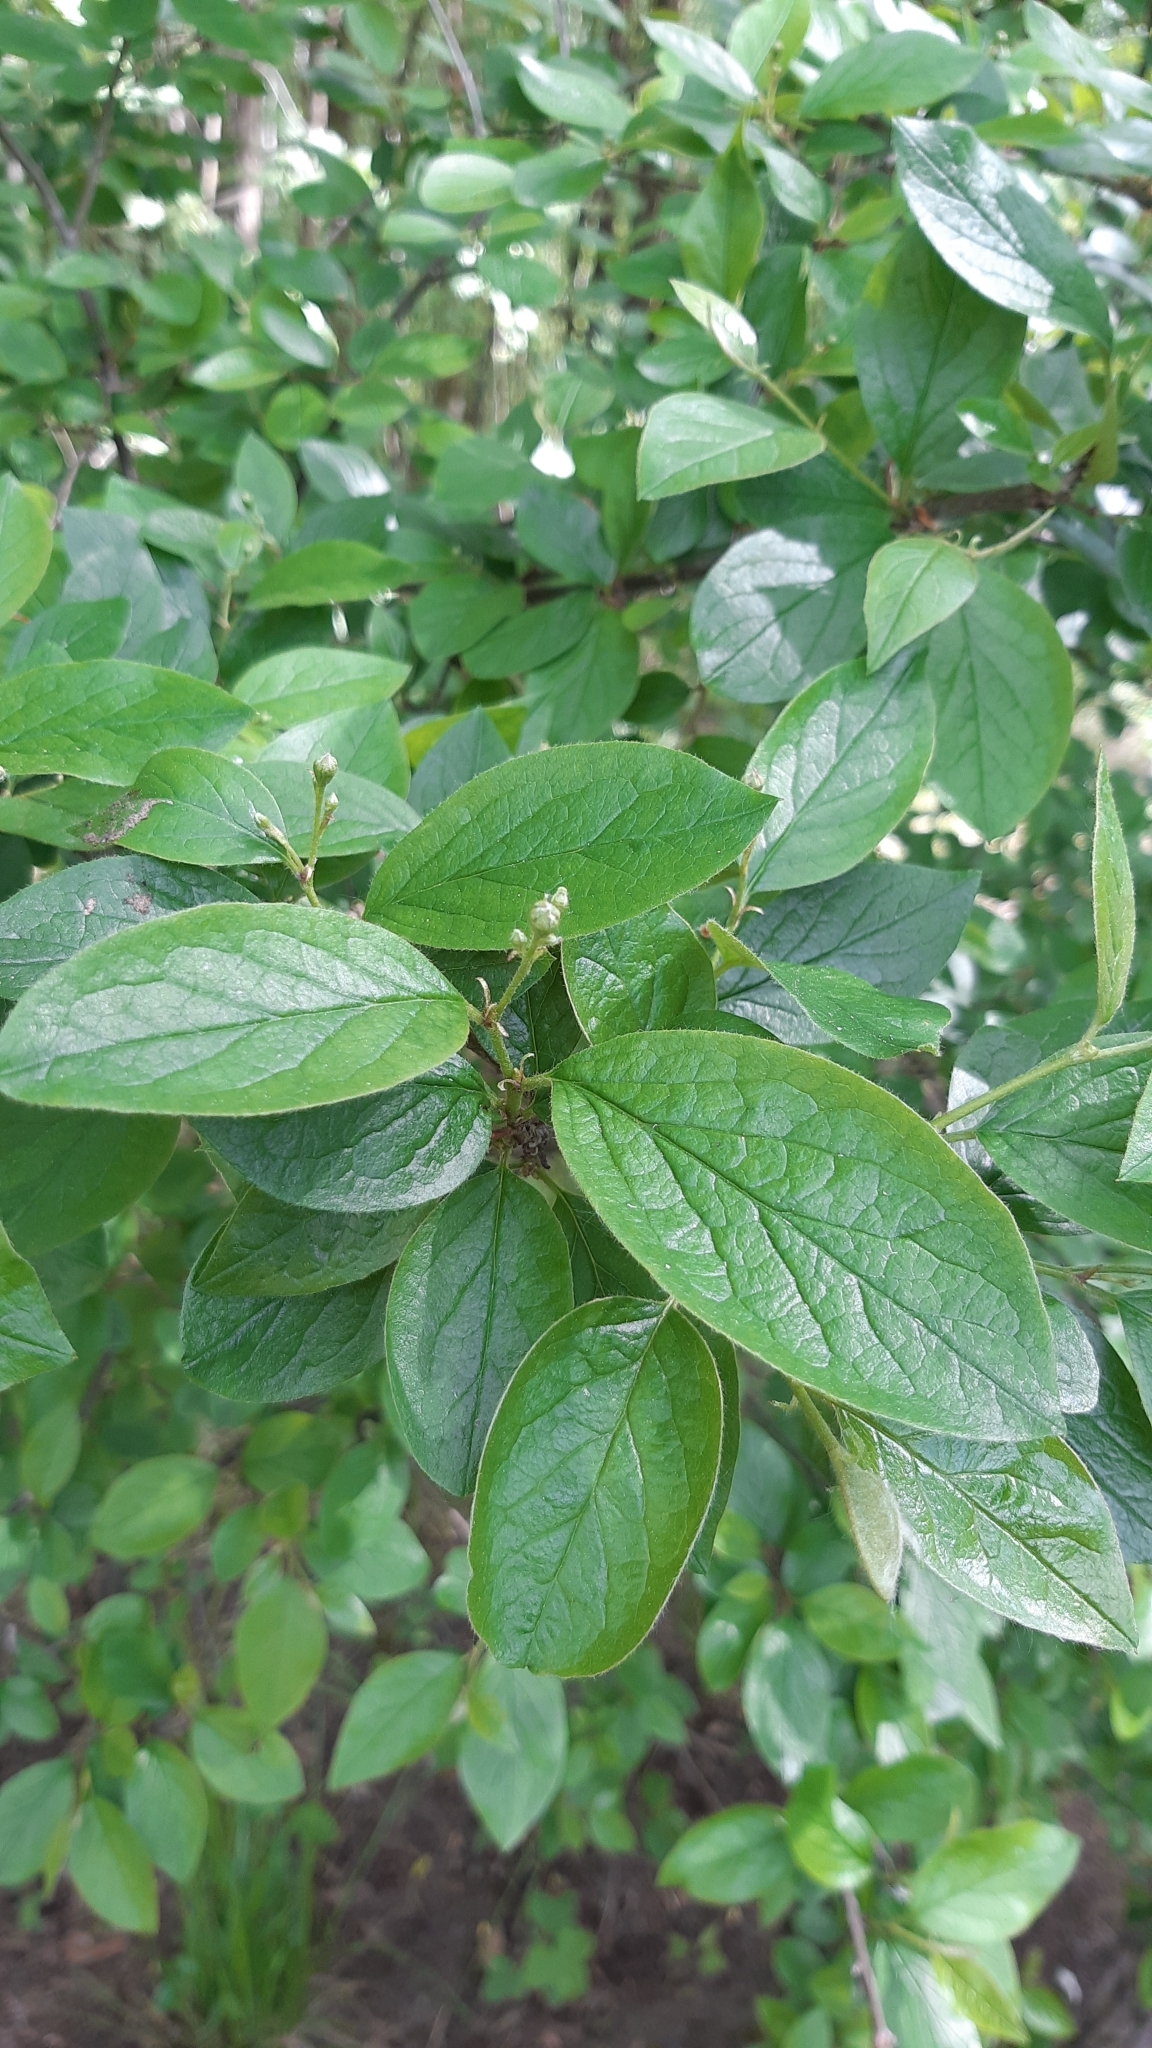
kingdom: Plantae
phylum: Tracheophyta
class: Magnoliopsida
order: Rosales
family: Rosaceae
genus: Cotoneaster
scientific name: Cotoneaster acutifolius
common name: Peking cotoneaster
